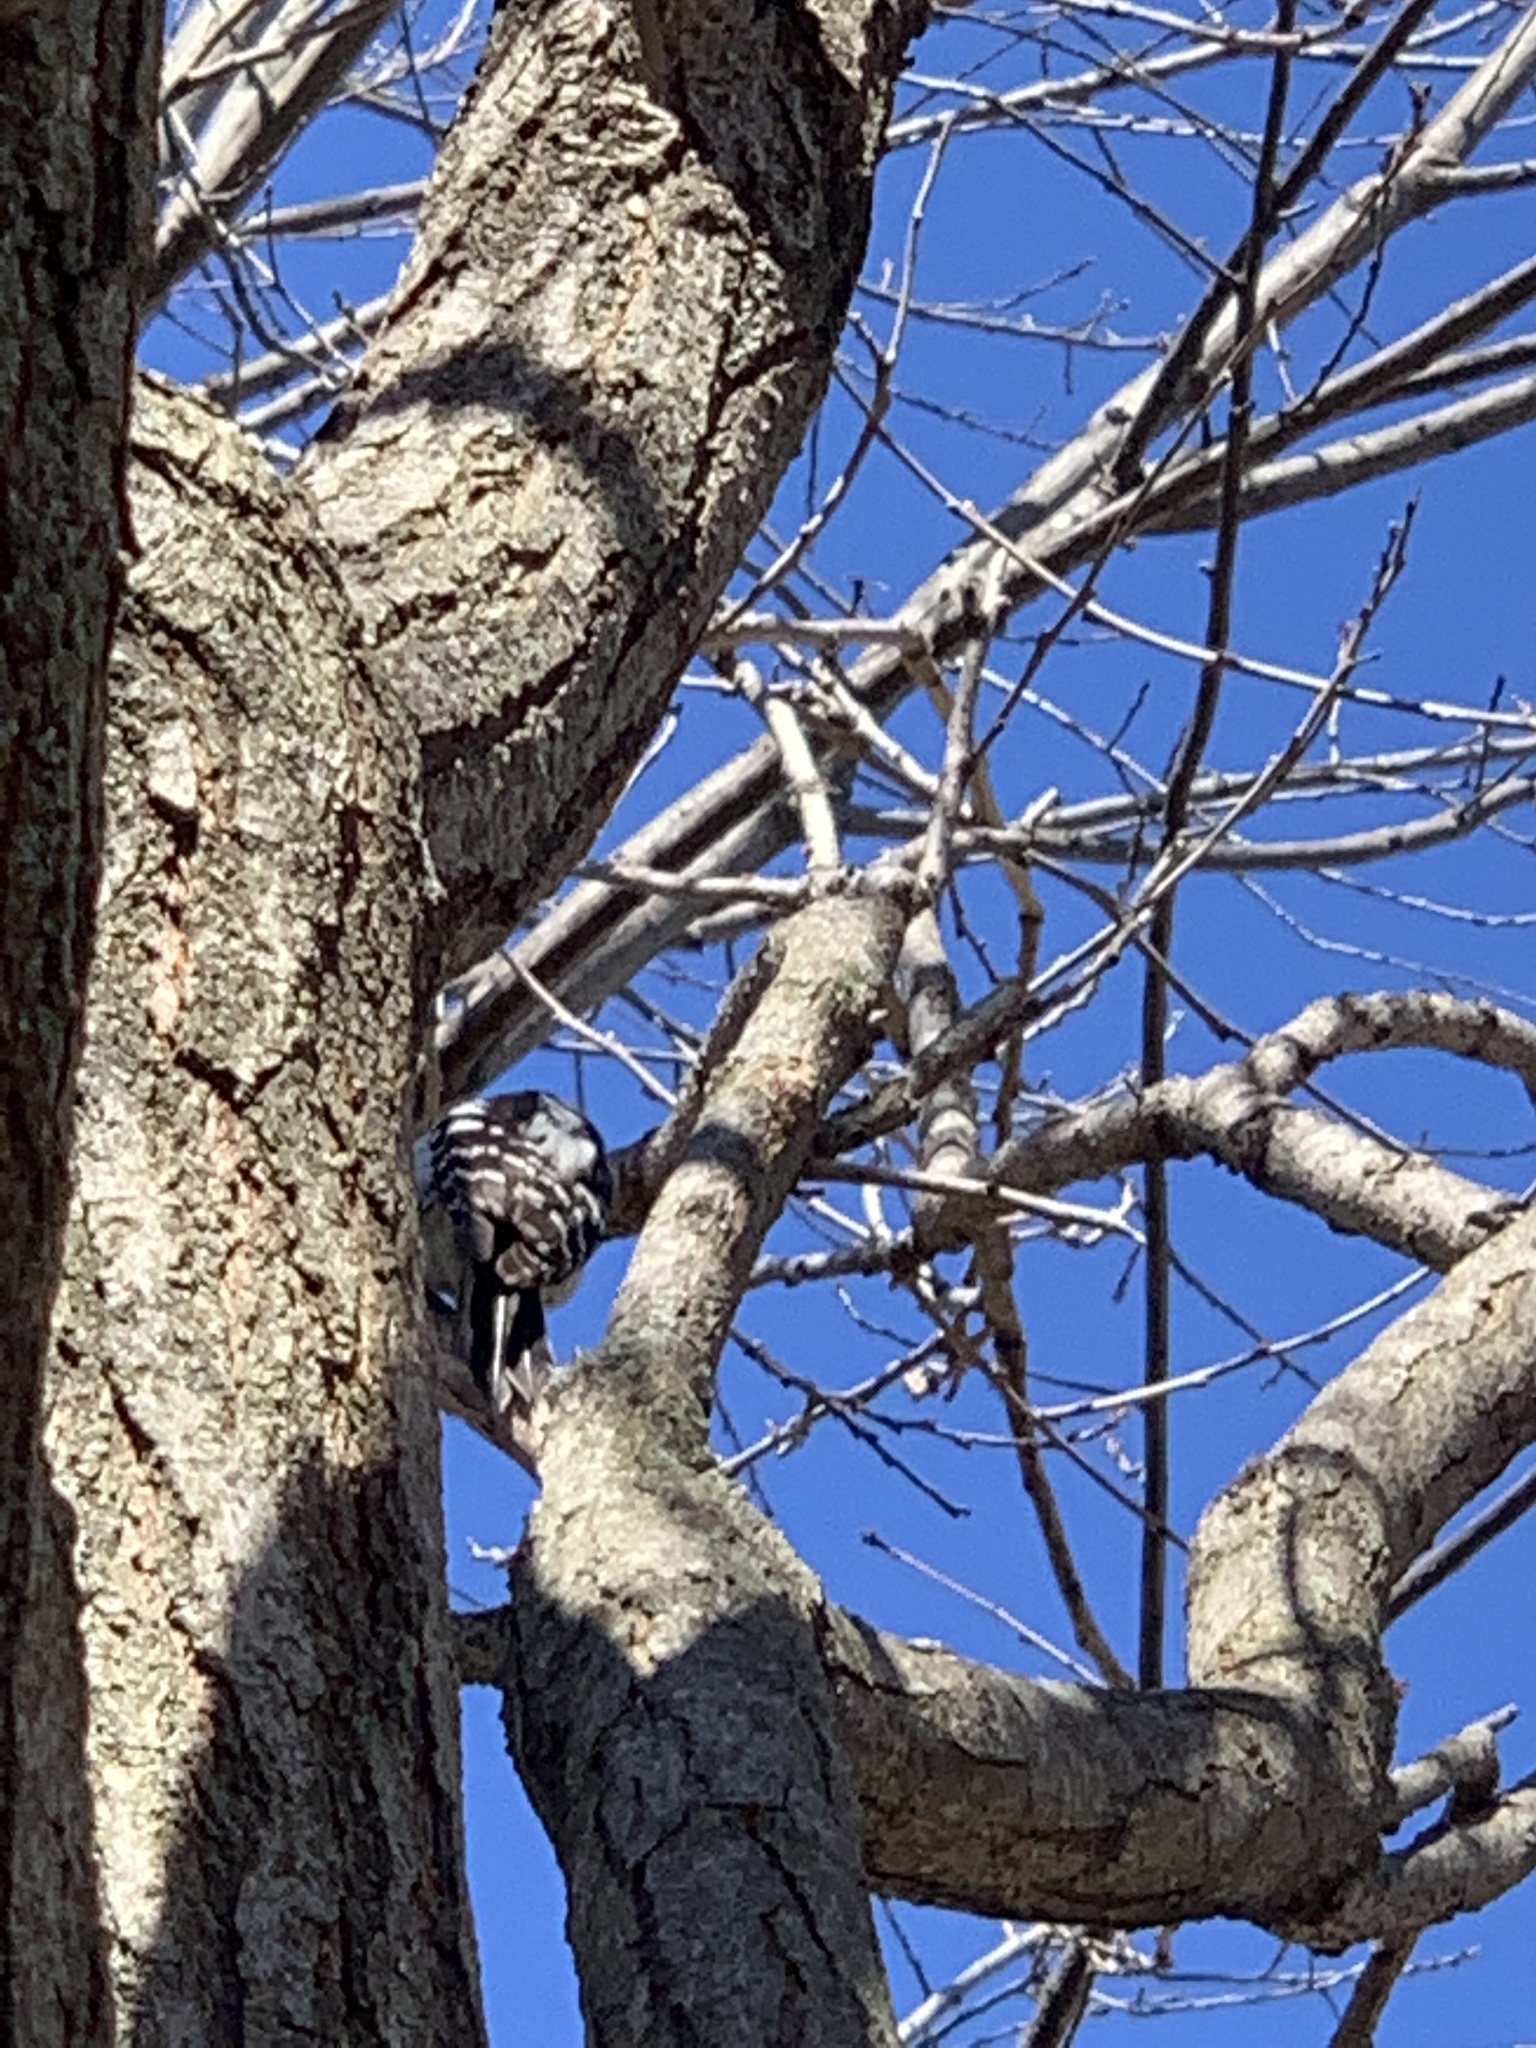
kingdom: Animalia
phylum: Chordata
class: Aves
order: Piciformes
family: Picidae
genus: Dryobates
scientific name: Dryobates pubescens
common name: Downy woodpecker
